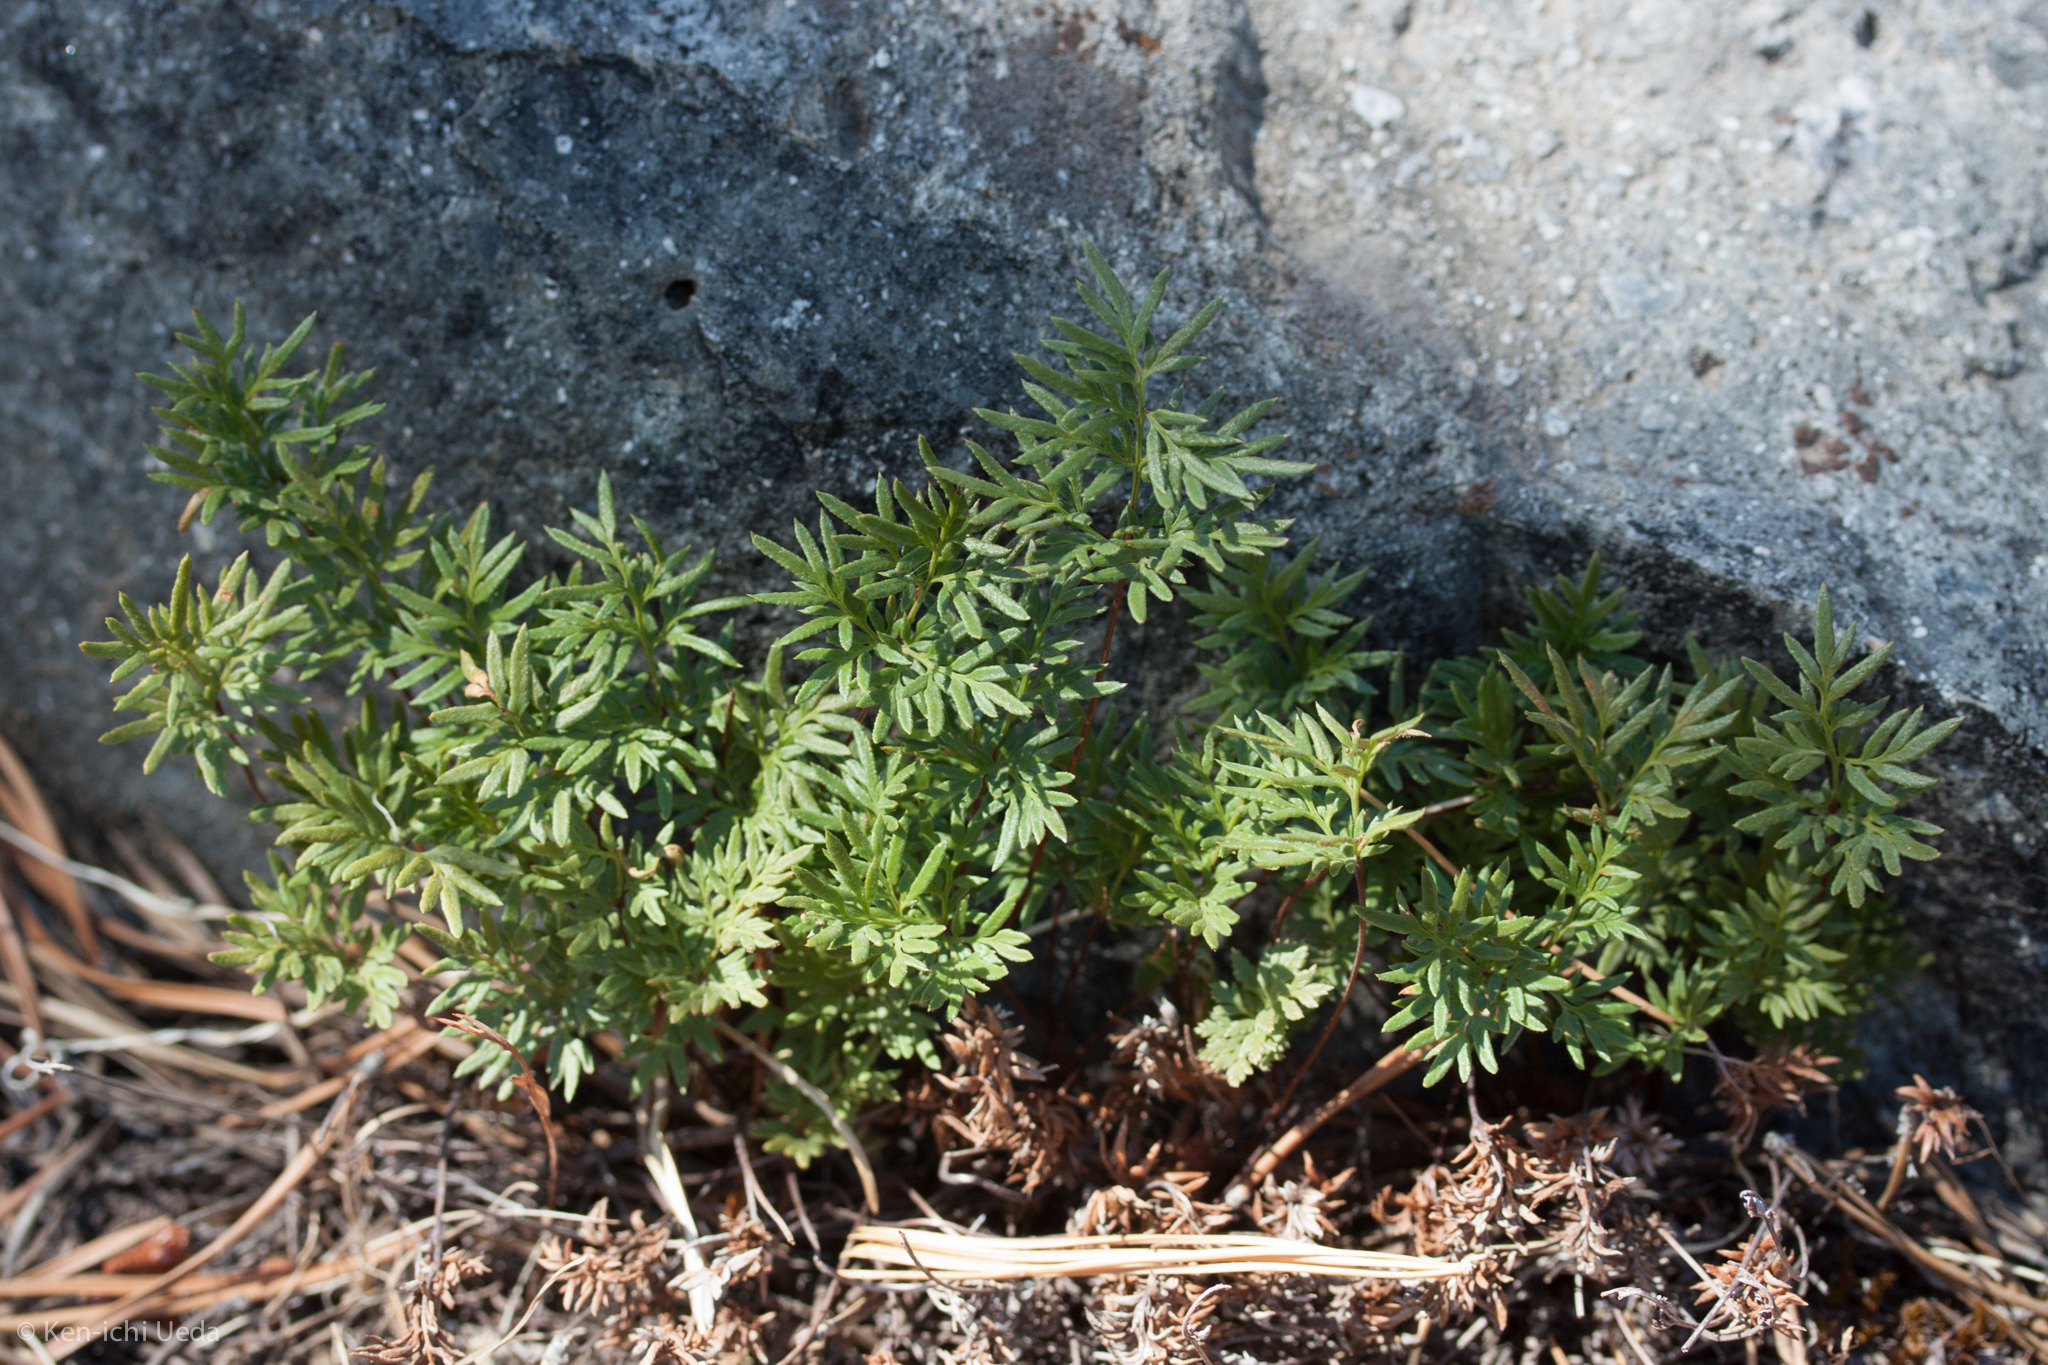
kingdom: Plantae
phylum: Tracheophyta
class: Polypodiopsida
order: Polypodiales
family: Pteridaceae
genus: Aspidotis
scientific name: Aspidotis densa
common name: Indian's dream
